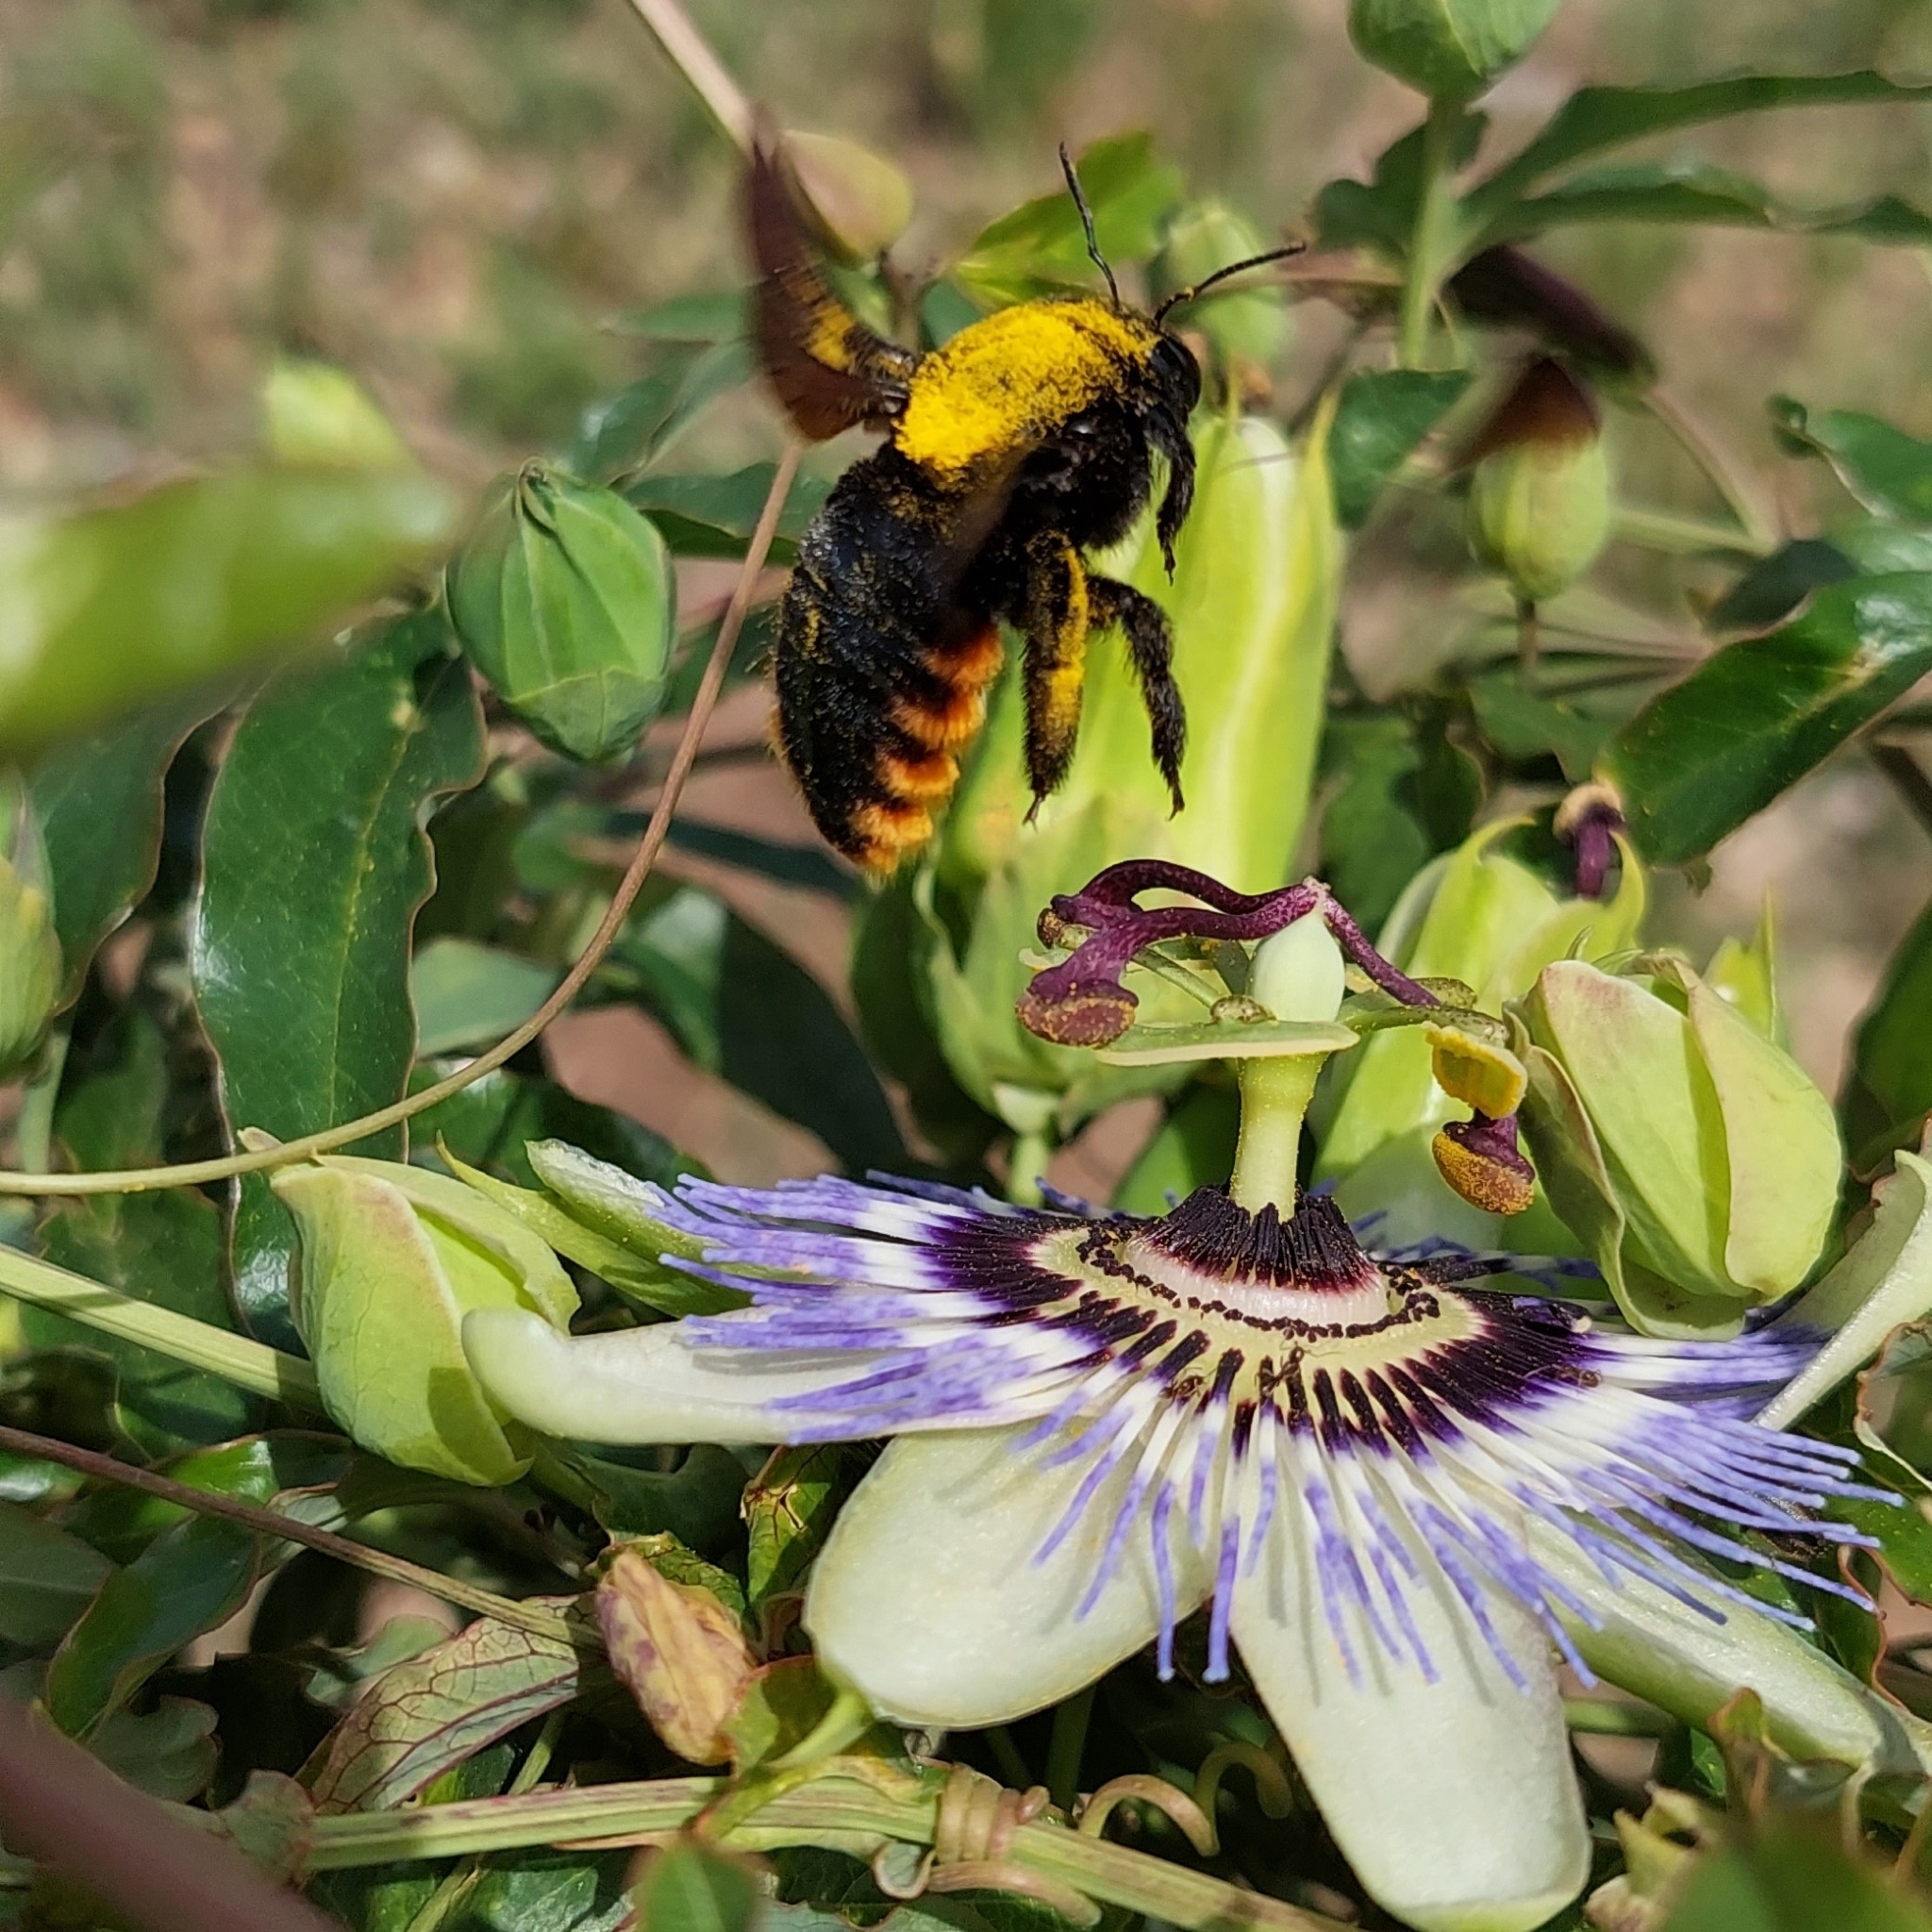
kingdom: Animalia
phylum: Arthropoda
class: Insecta
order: Hymenoptera
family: Apidae
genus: Xylocopa
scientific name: Xylocopa augusti
